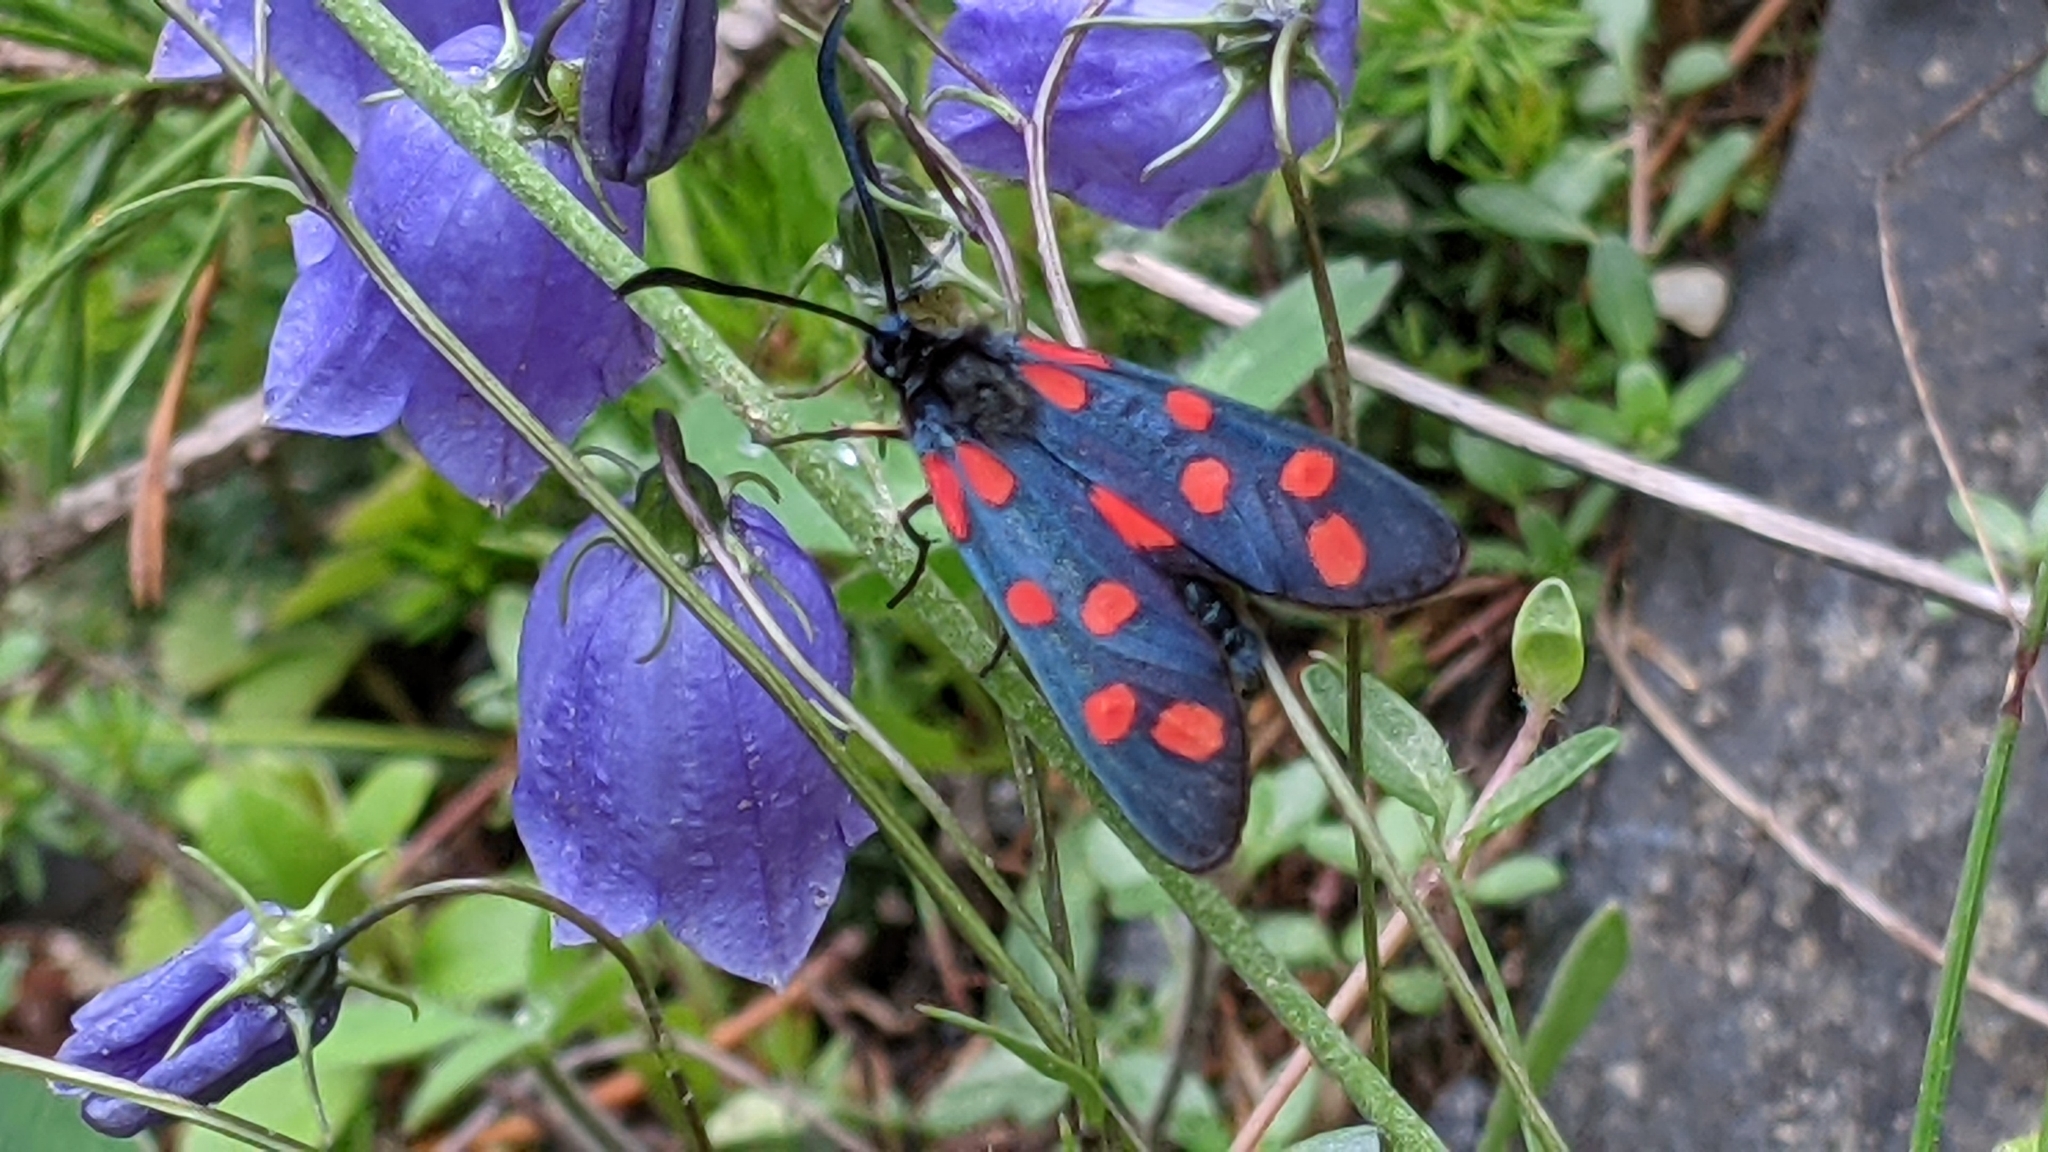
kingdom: Animalia
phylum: Arthropoda
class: Insecta
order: Lepidoptera
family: Zygaenidae
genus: Zygaena
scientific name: Zygaena transalpina
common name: Southern six spot burnet
